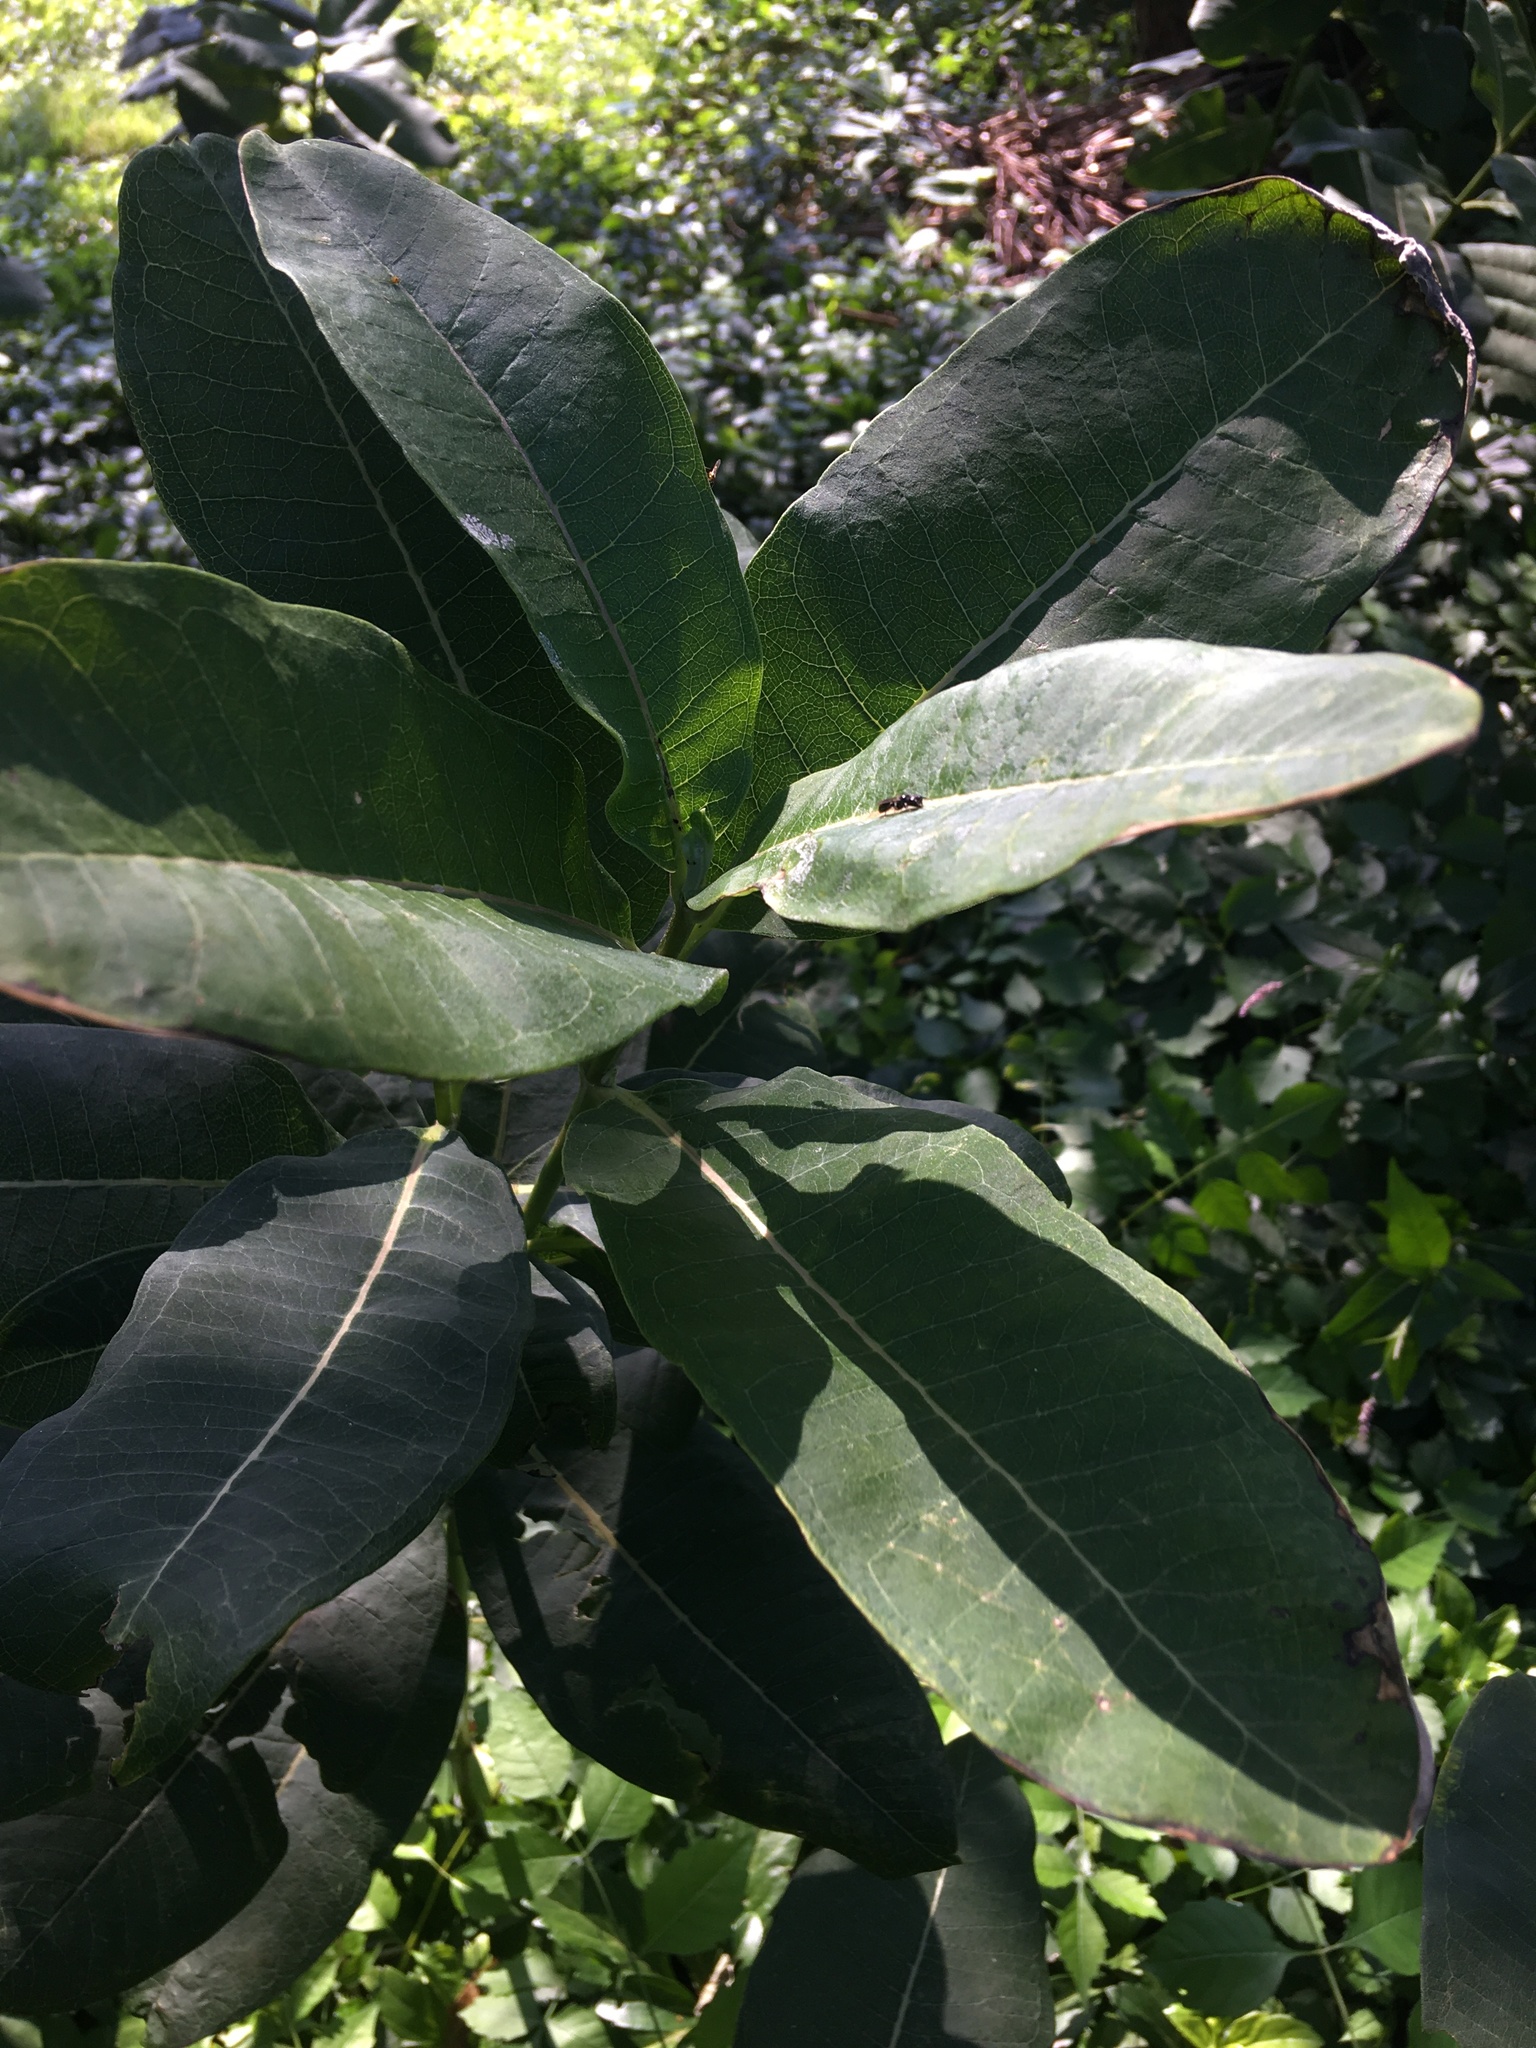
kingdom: Plantae
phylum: Tracheophyta
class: Magnoliopsida
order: Gentianales
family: Apocynaceae
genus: Asclepias
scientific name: Asclepias syriaca
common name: Common milkweed
